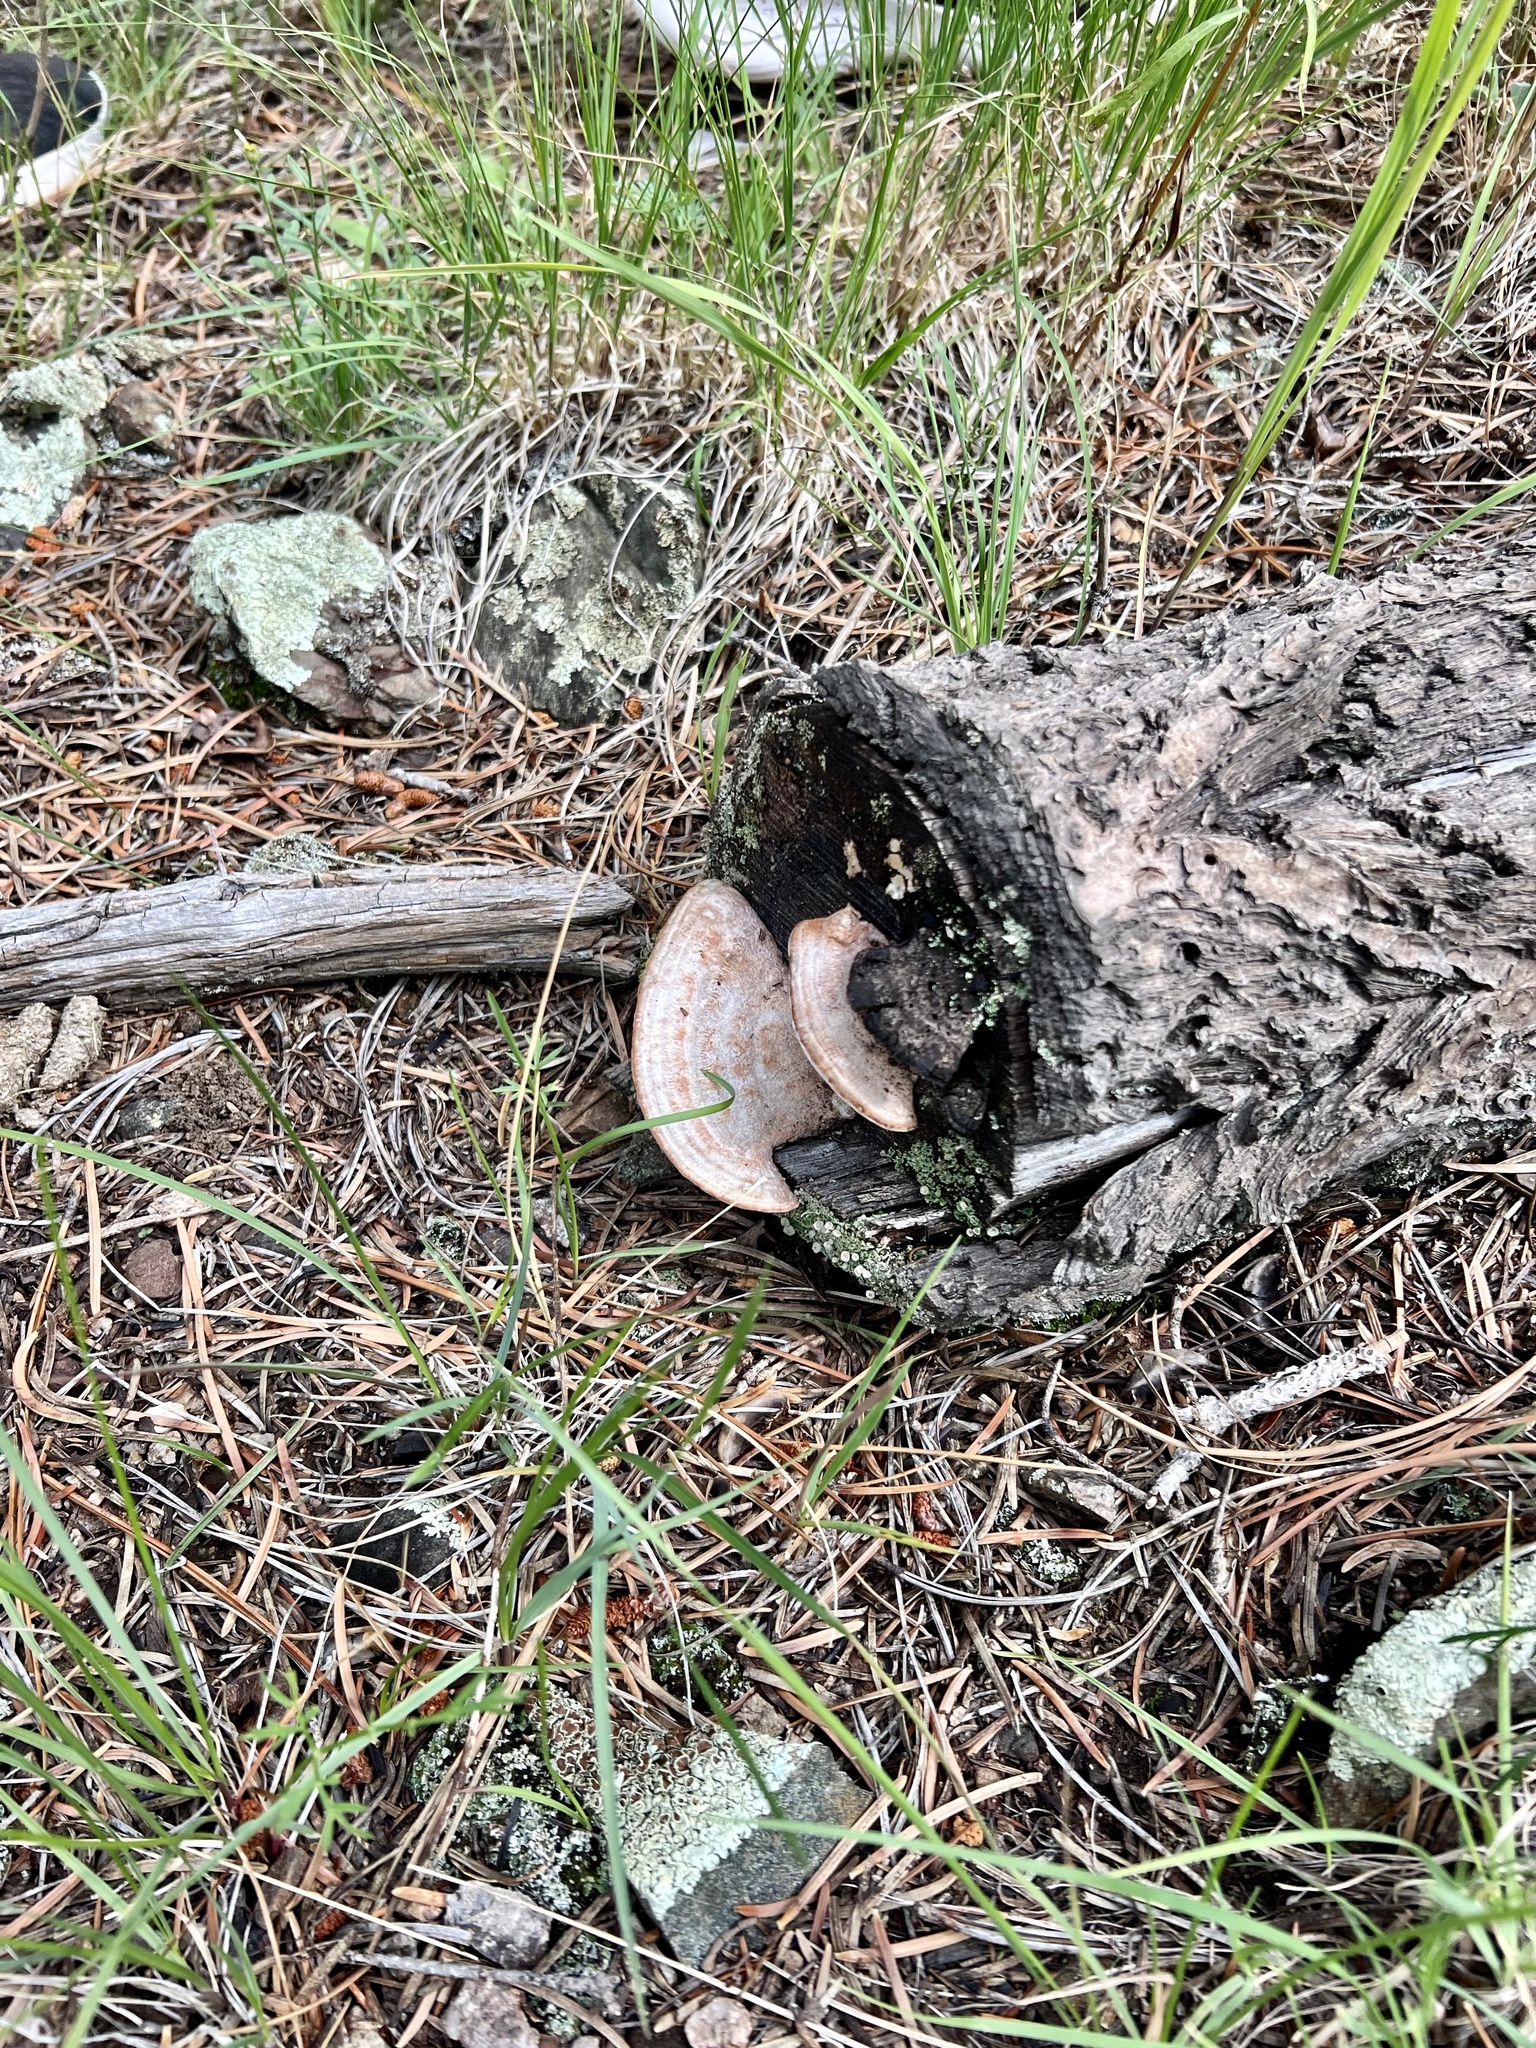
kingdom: Fungi
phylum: Basidiomycota
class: Agaricomycetes
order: Polyporales
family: Fomitopsidaceae
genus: Rhodofomes
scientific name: Rhodofomes cajanderi
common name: Rosy conk
